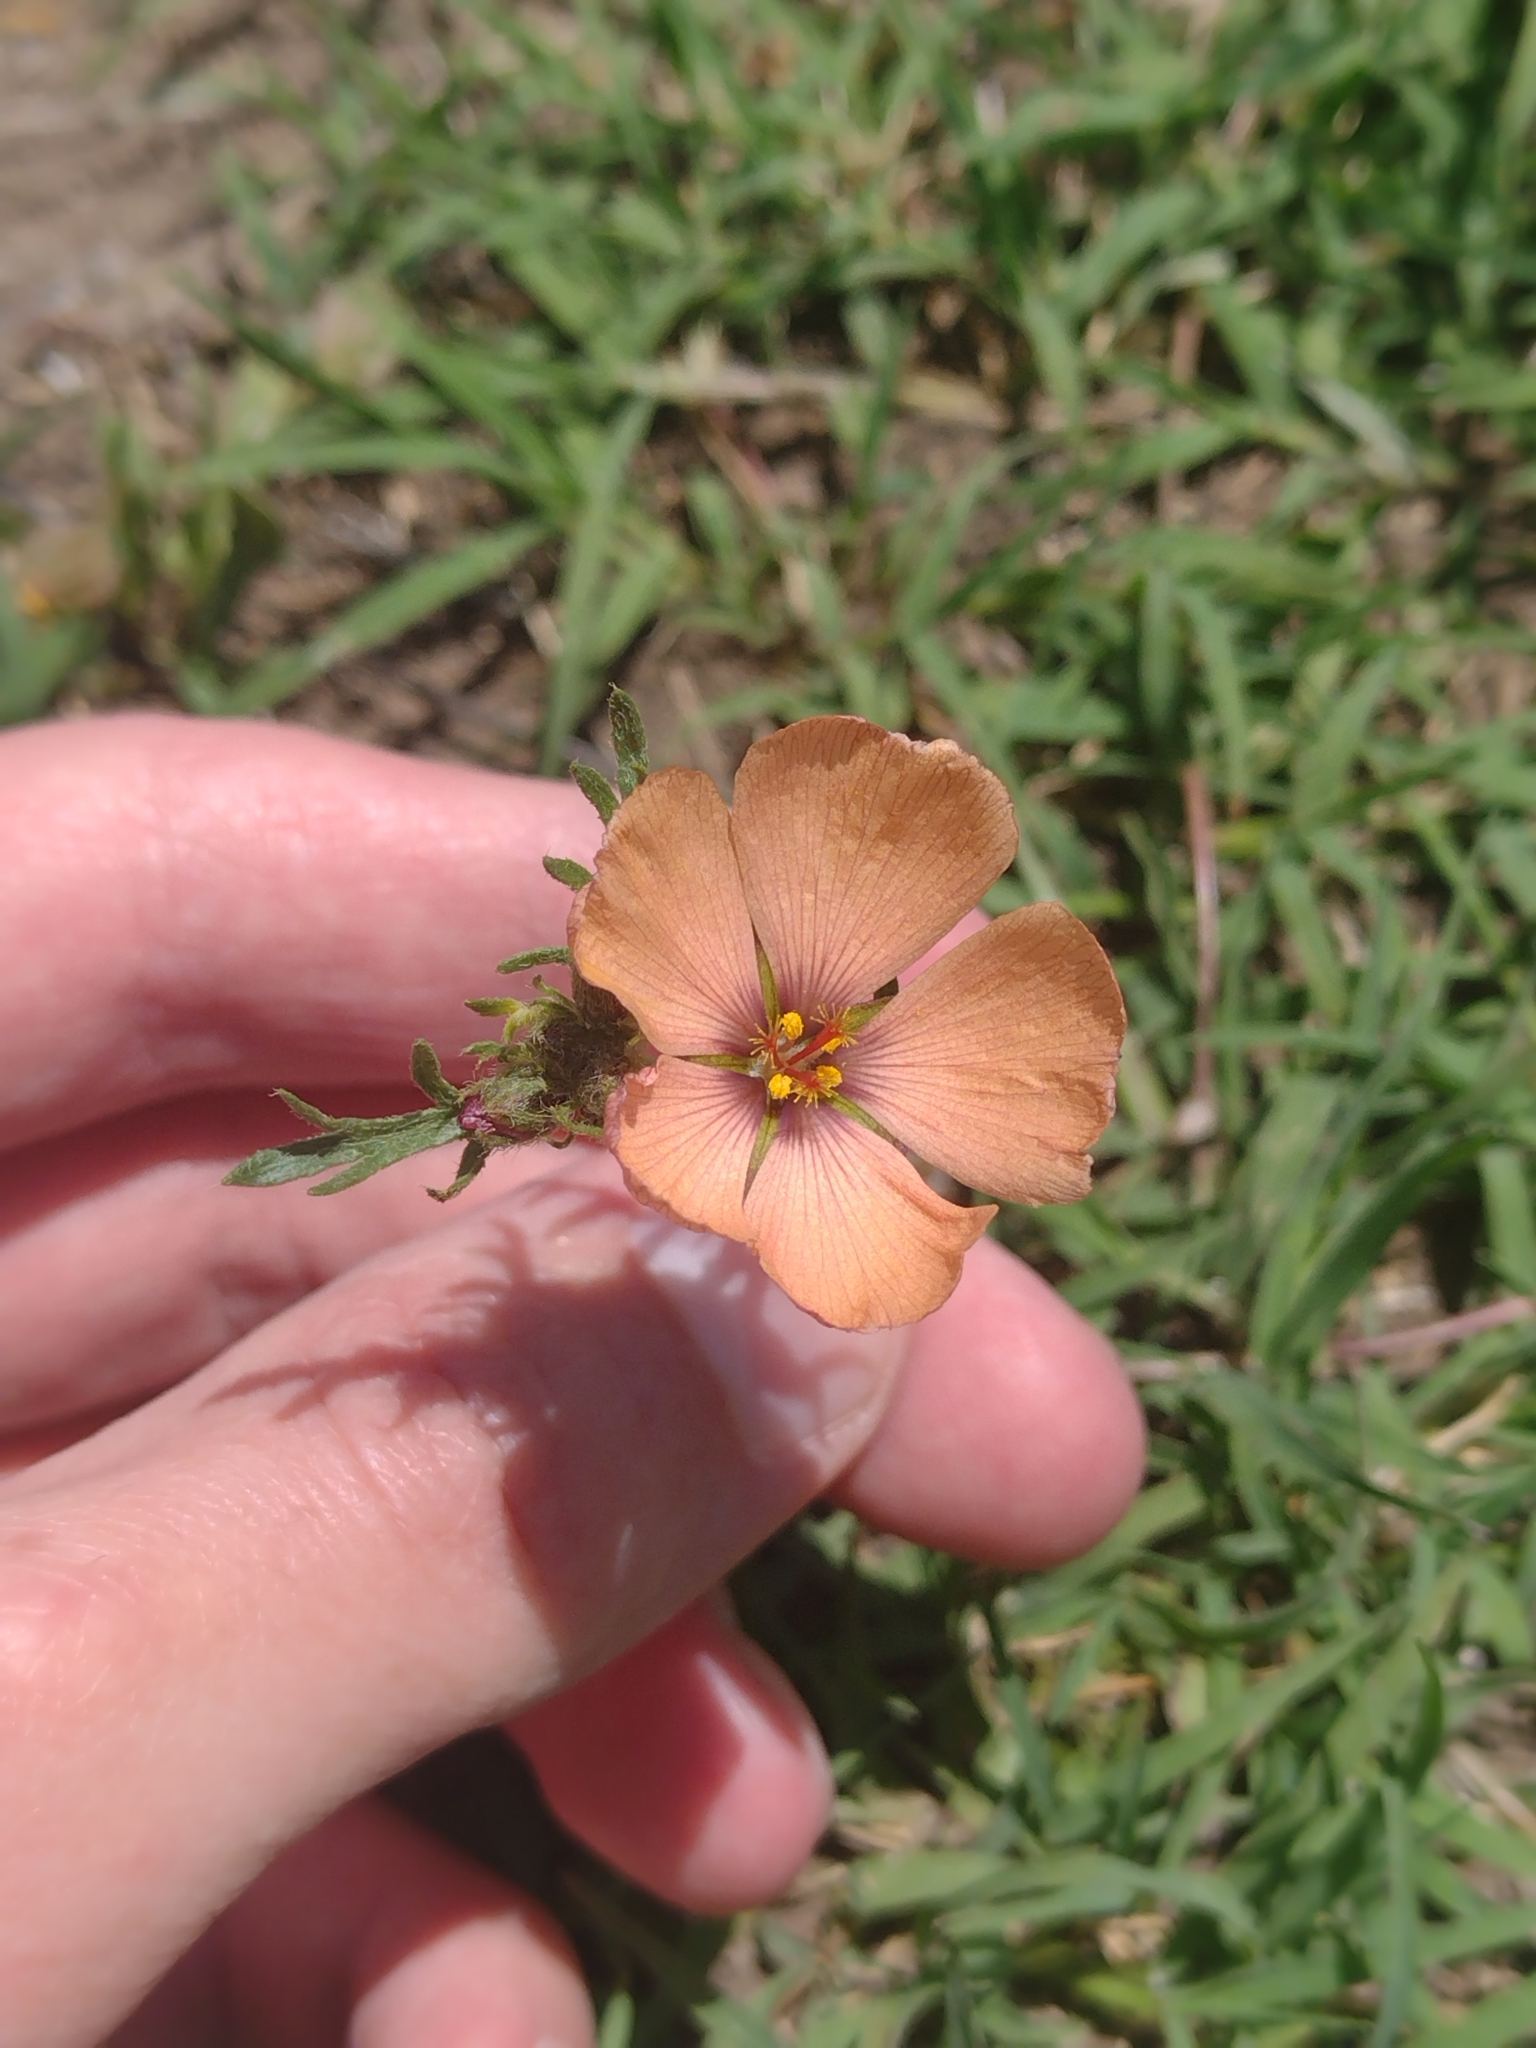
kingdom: Plantae
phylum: Tracheophyta
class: Magnoliopsida
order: Malpighiales
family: Turneraceae
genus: Turnera
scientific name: Turnera sidoides
